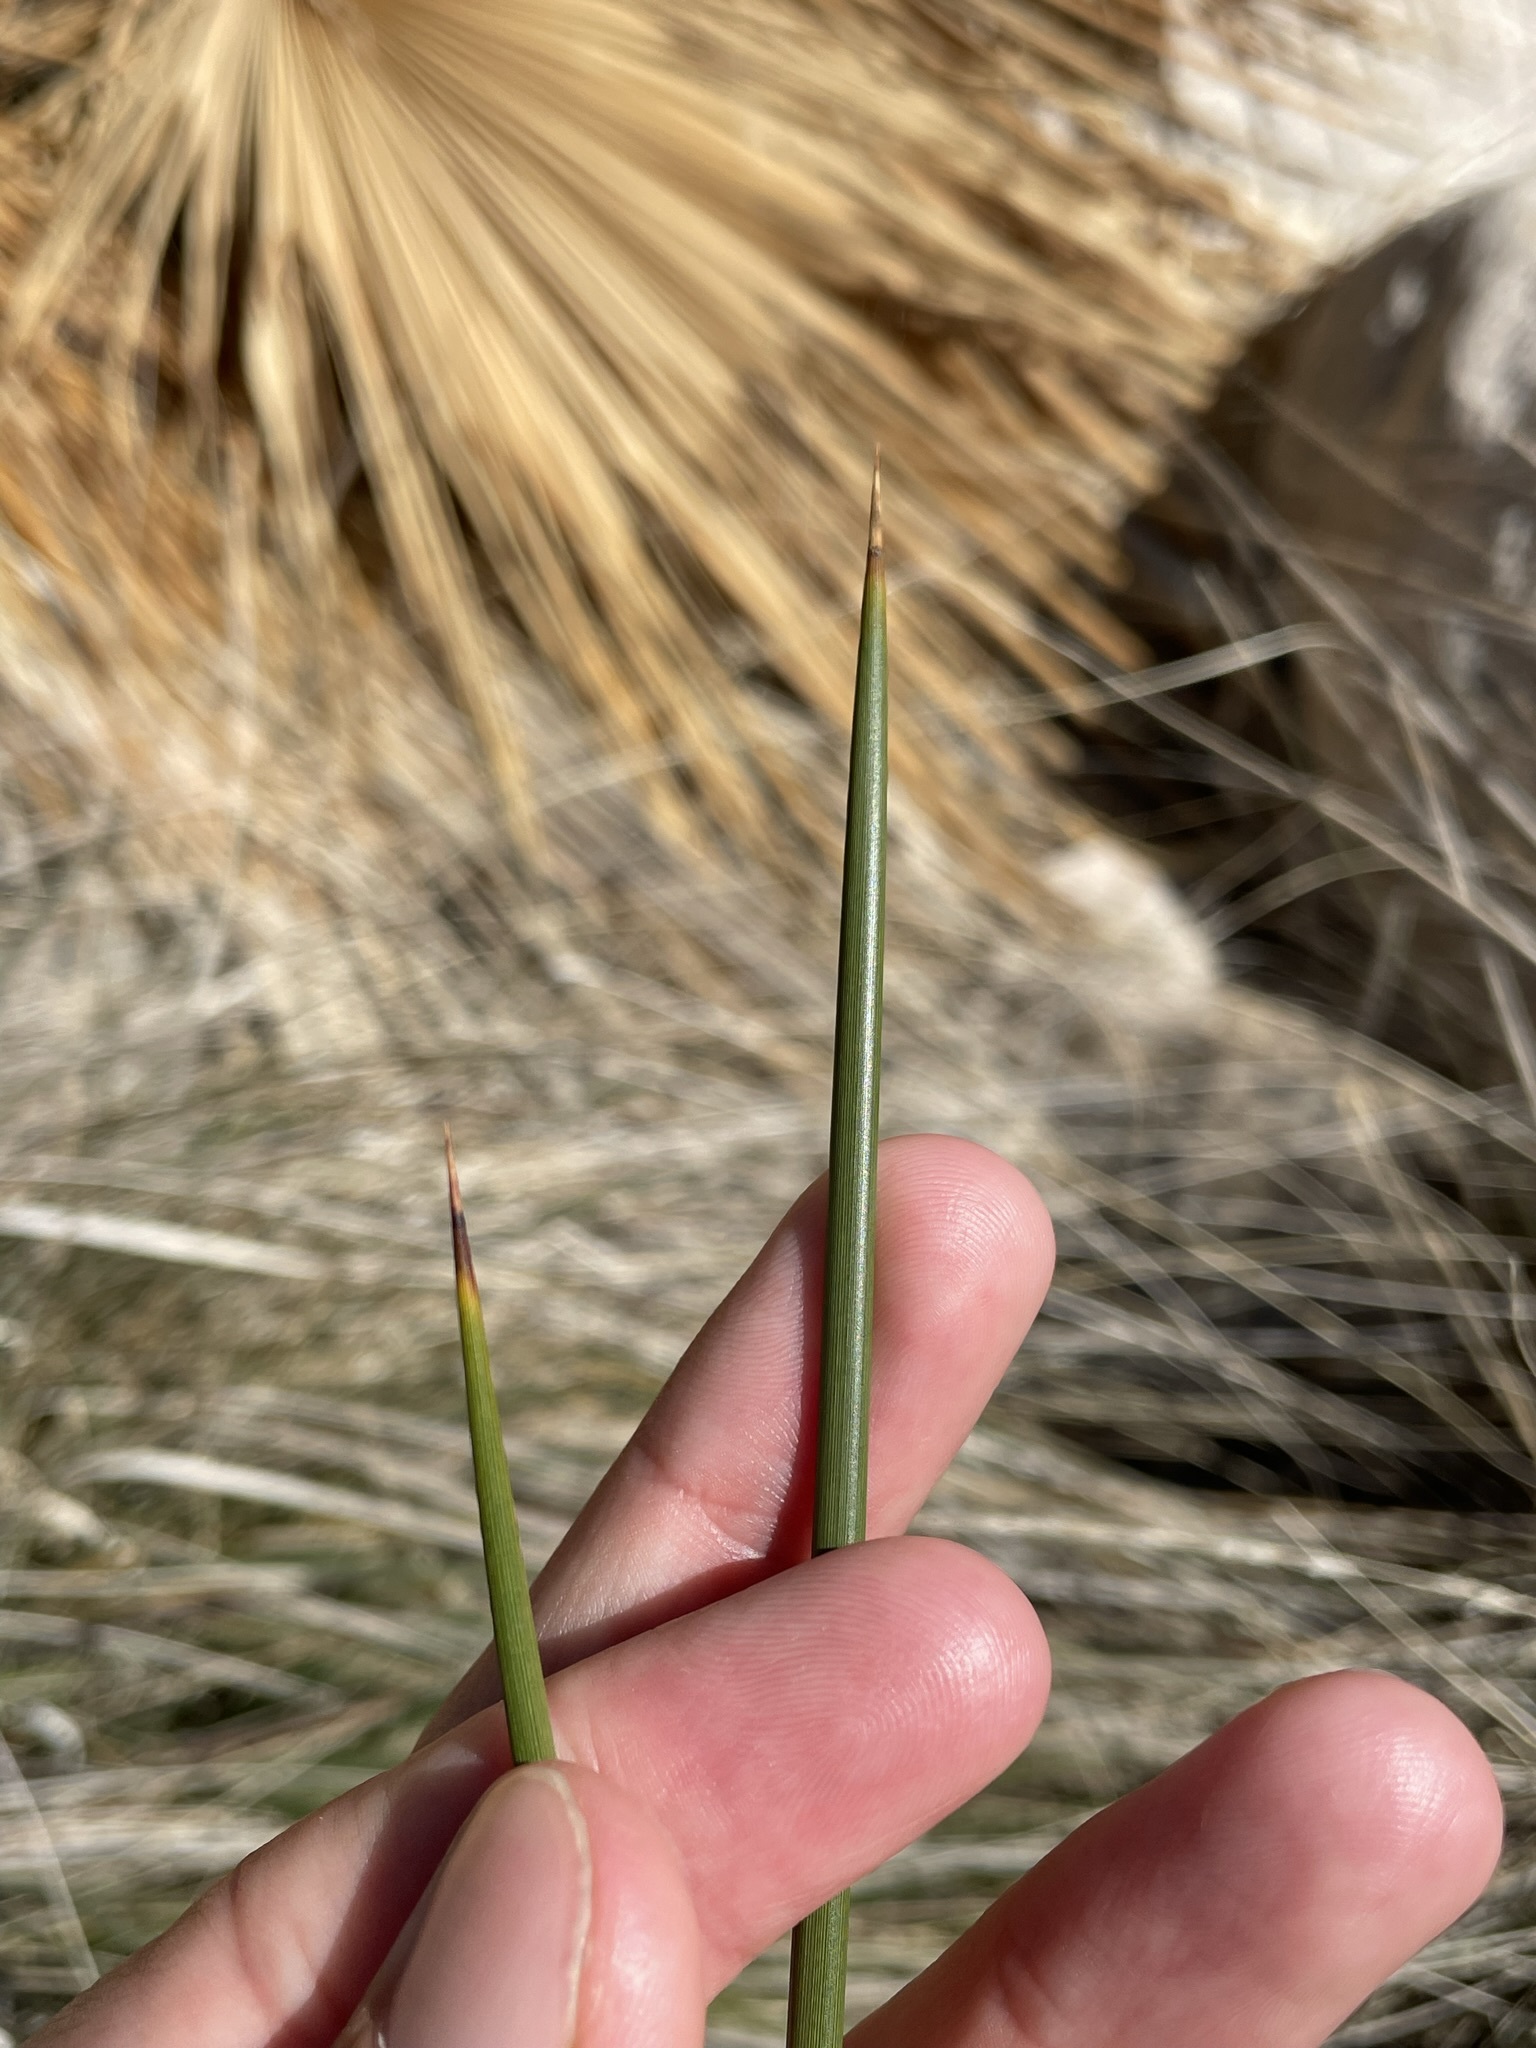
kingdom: Plantae
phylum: Tracheophyta
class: Liliopsida
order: Poales
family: Juncaceae
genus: Juncus
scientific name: Juncus acutus
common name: Sharp rush
